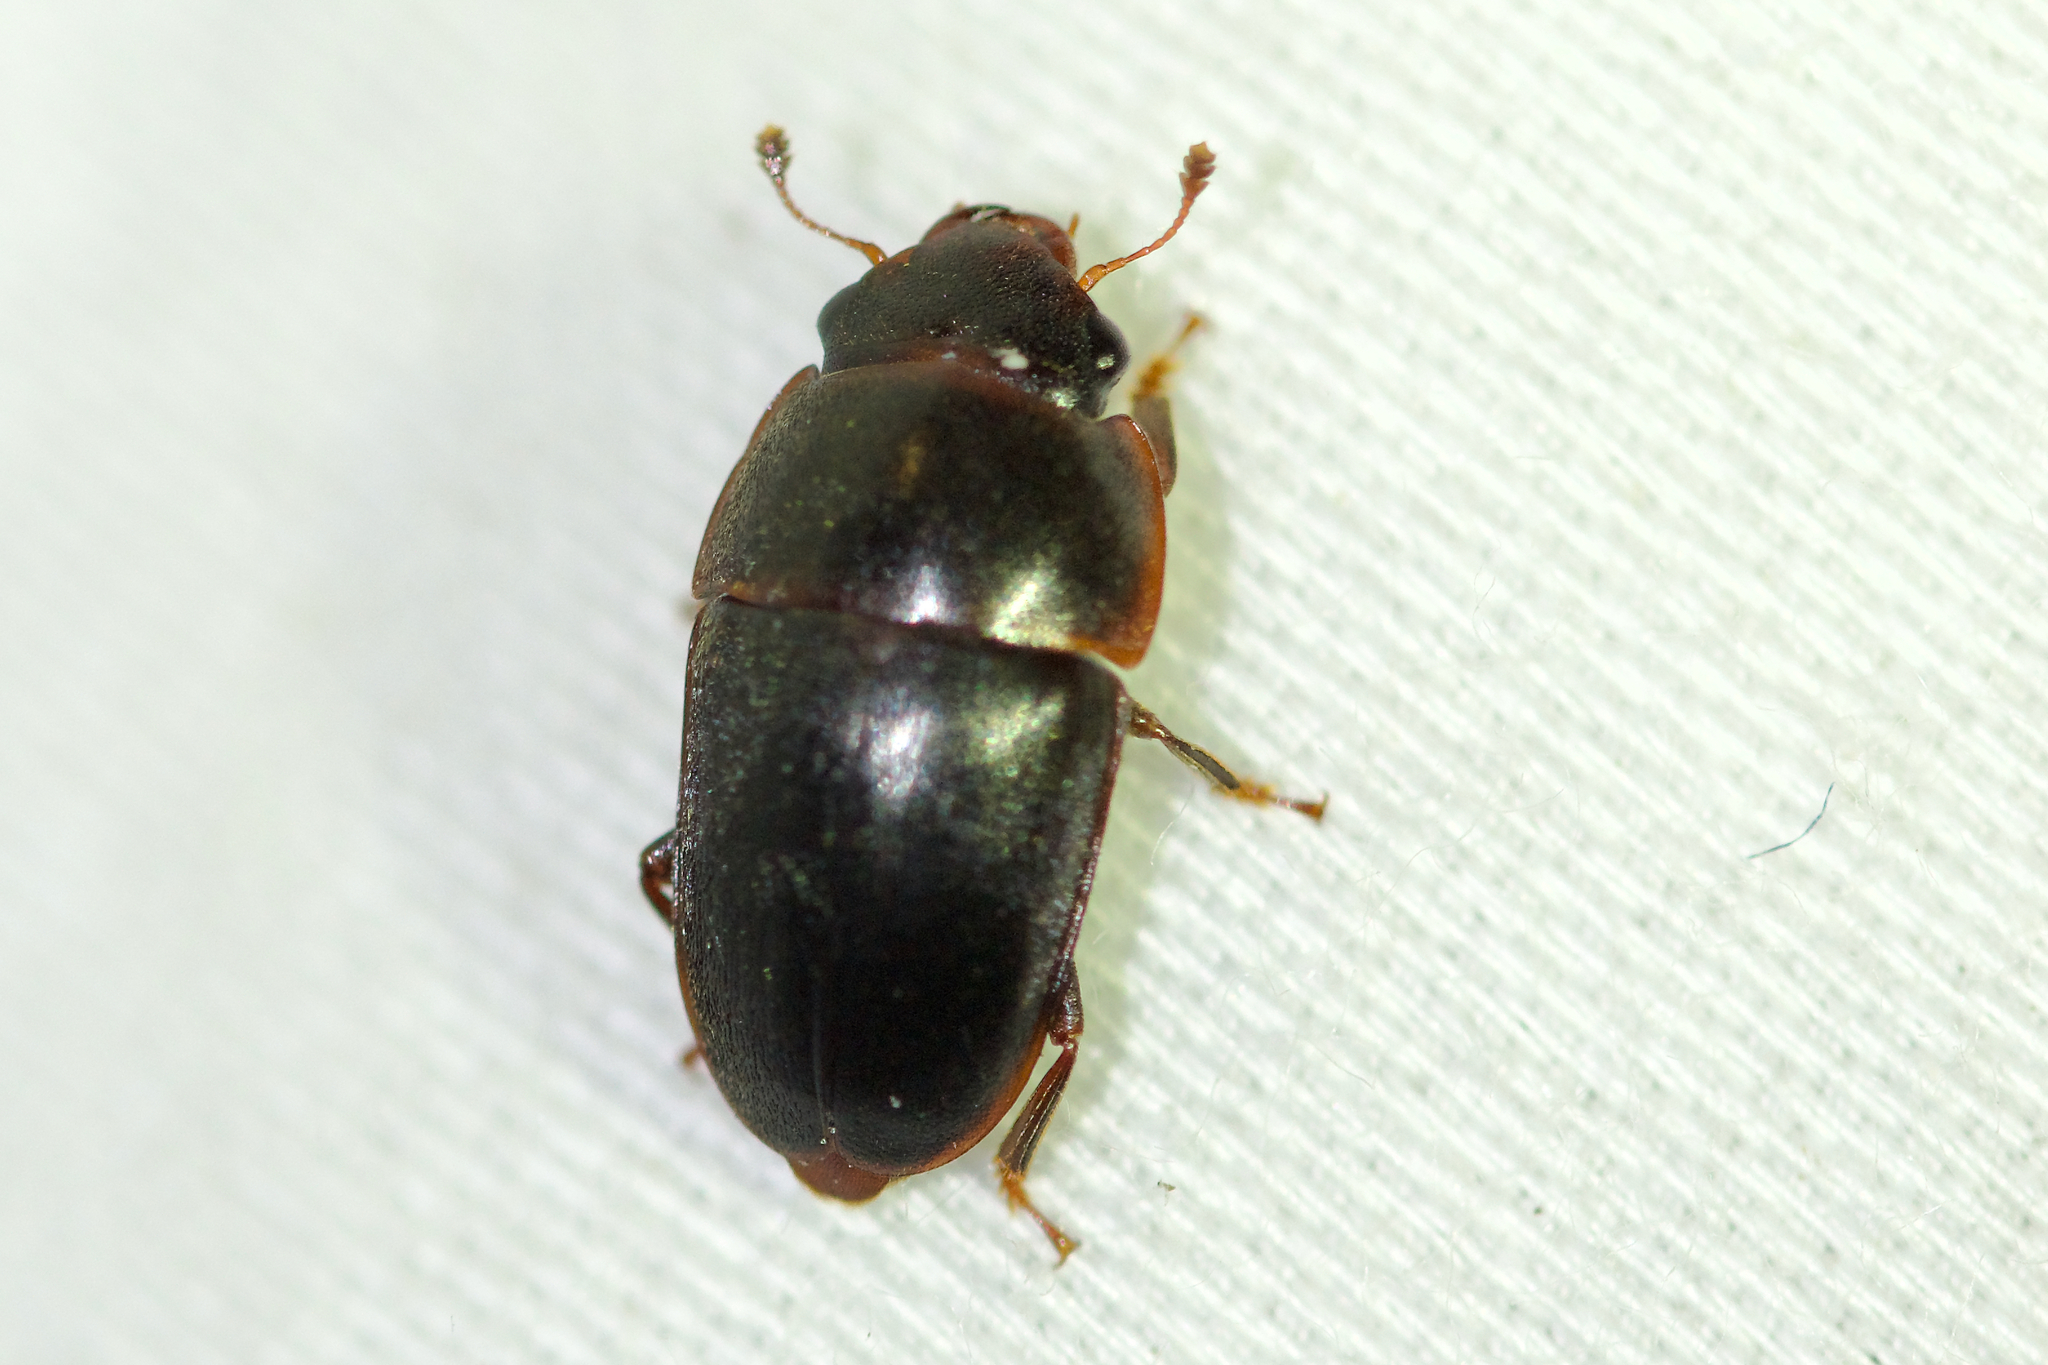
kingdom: Animalia
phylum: Arthropoda
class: Insecta
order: Coleoptera
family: Nitidulidae
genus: Cryptarcha
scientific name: Cryptarcha ampla
